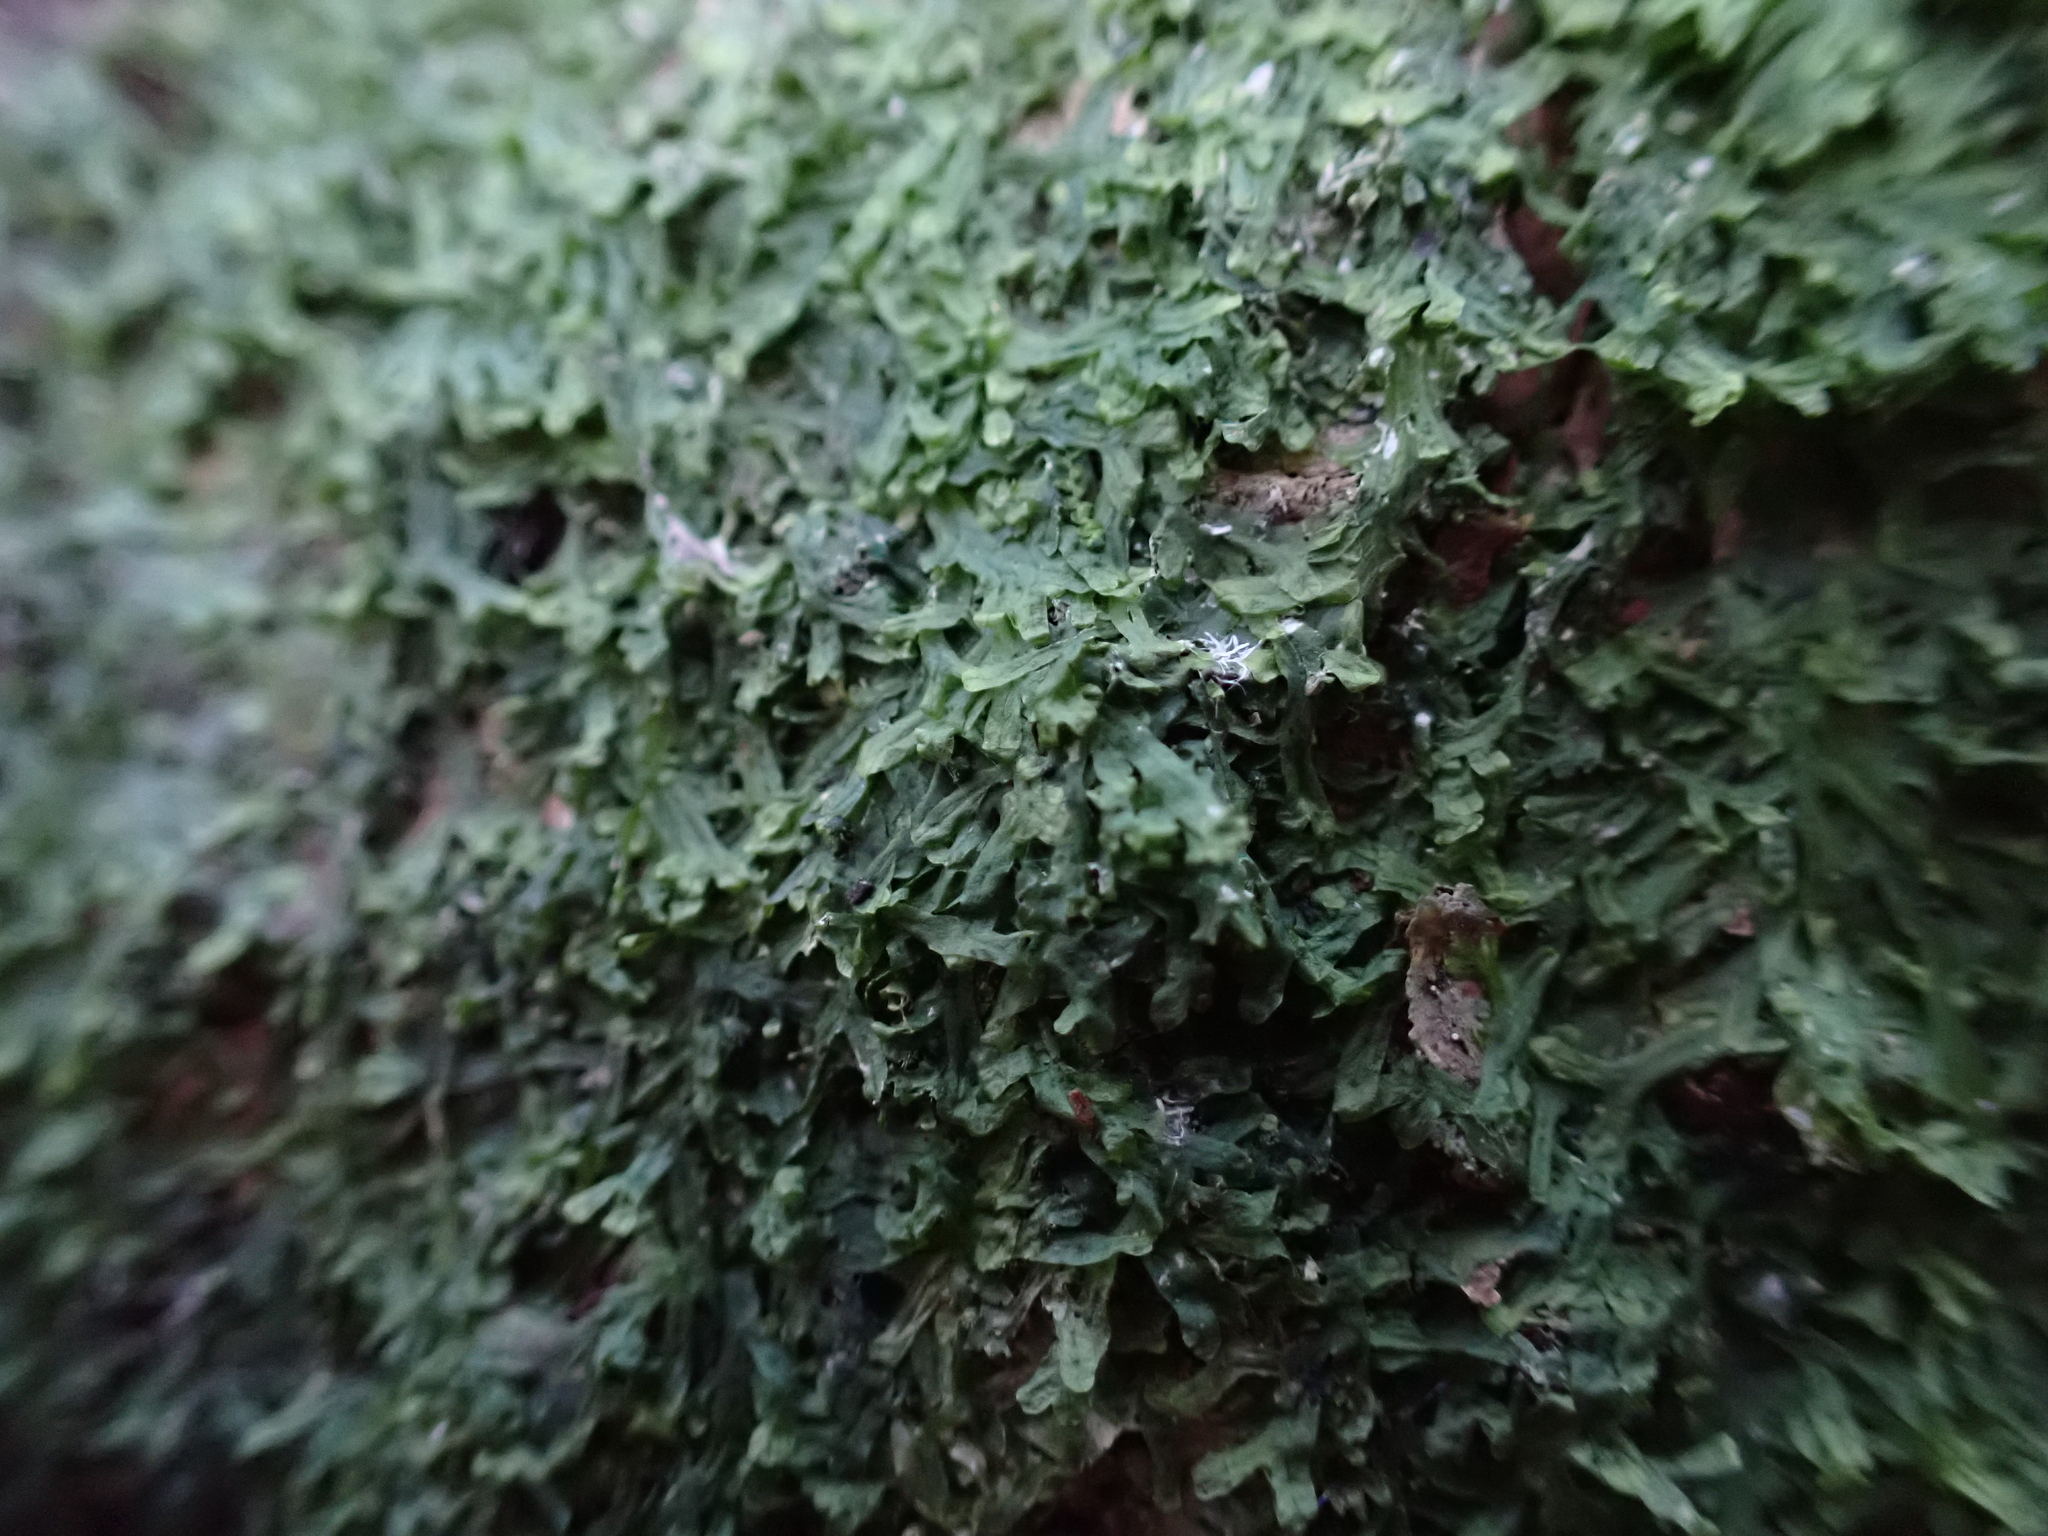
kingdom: Plantae
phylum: Marchantiophyta
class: Jungermanniopsida
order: Metzgeriales
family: Metzgeriaceae
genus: Metzgeria
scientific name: Metzgeria furcata
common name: Forked veilwort
